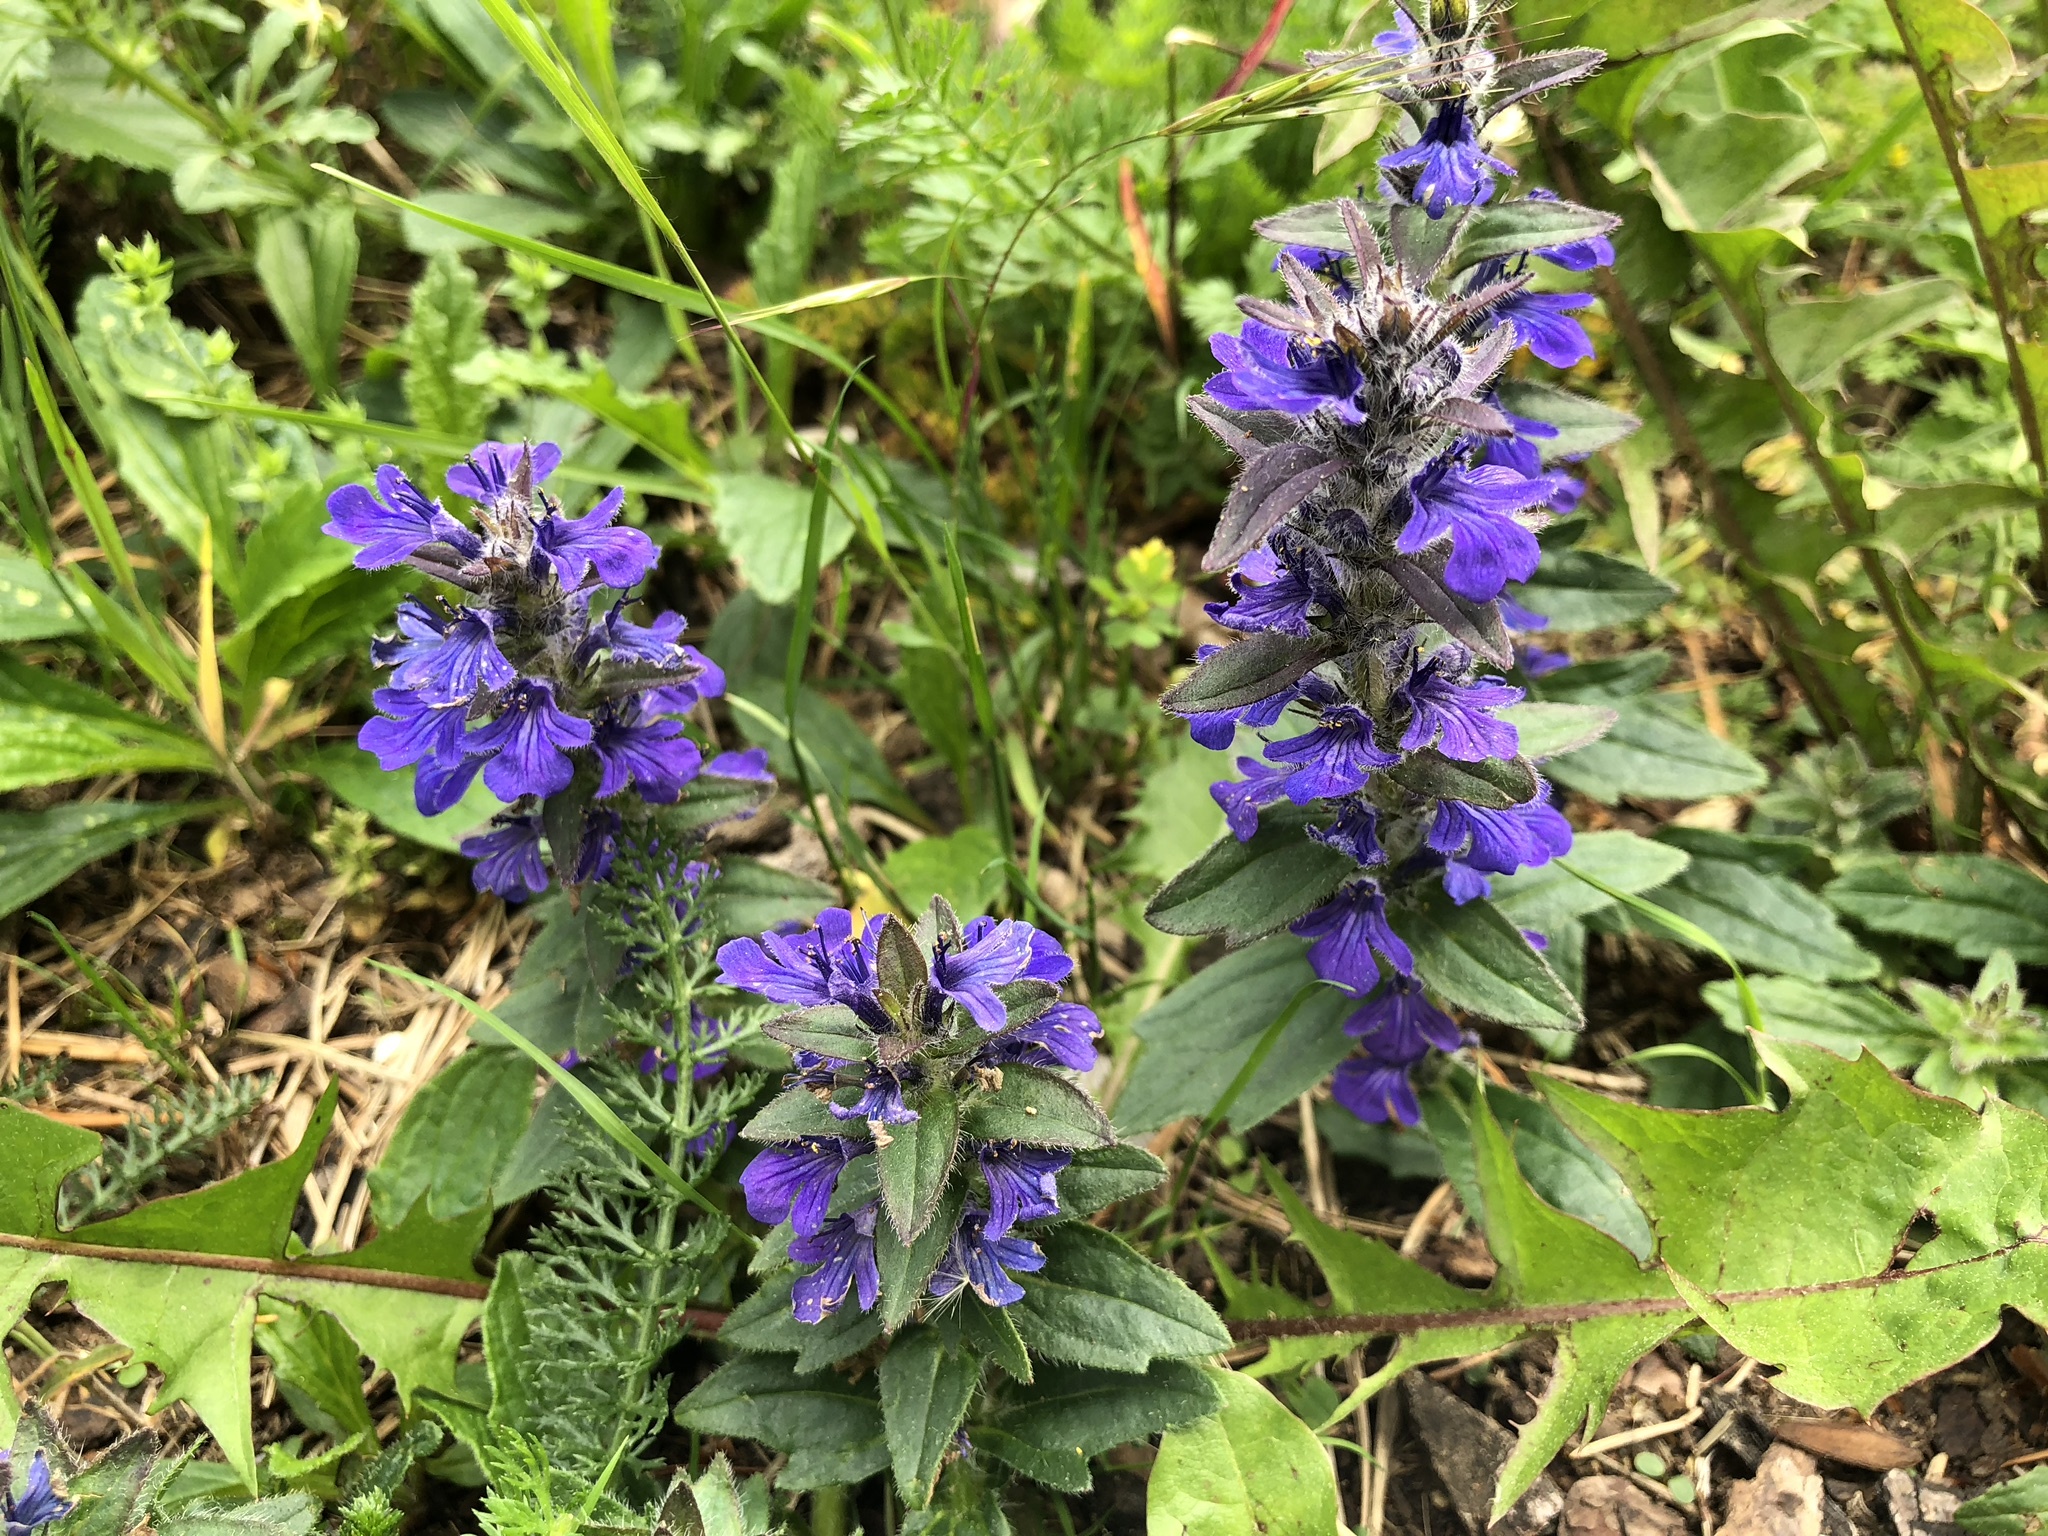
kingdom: Plantae
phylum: Tracheophyta
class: Magnoliopsida
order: Lamiales
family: Lamiaceae
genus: Ajuga
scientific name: Ajuga genevensis
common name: Blue bugle
